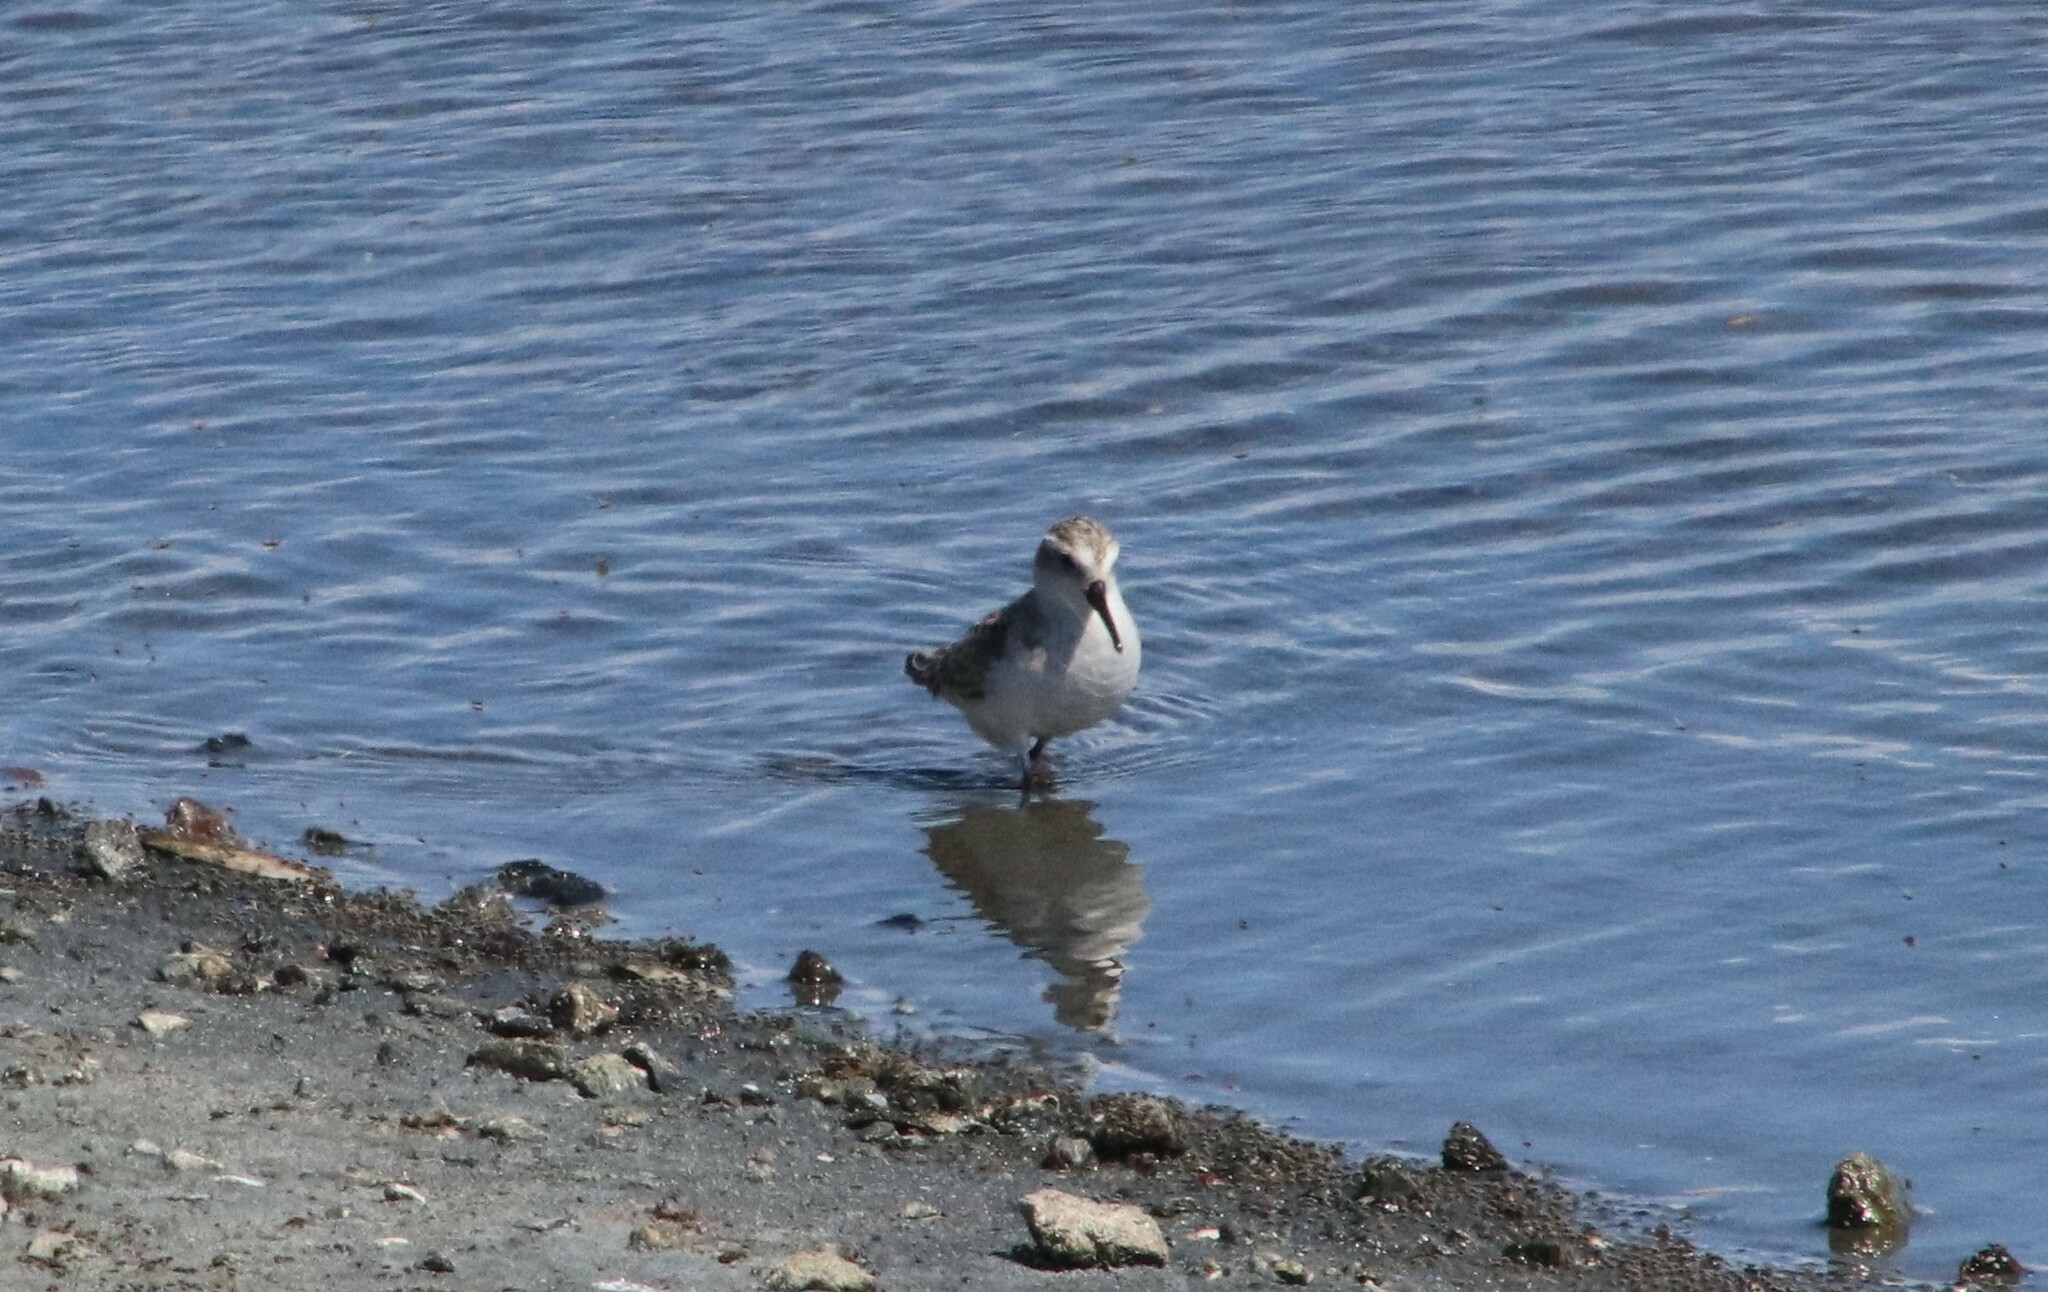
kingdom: Animalia
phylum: Chordata
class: Aves
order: Charadriiformes
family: Scolopacidae
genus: Calidris
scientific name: Calidris mauri
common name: Western sandpiper
